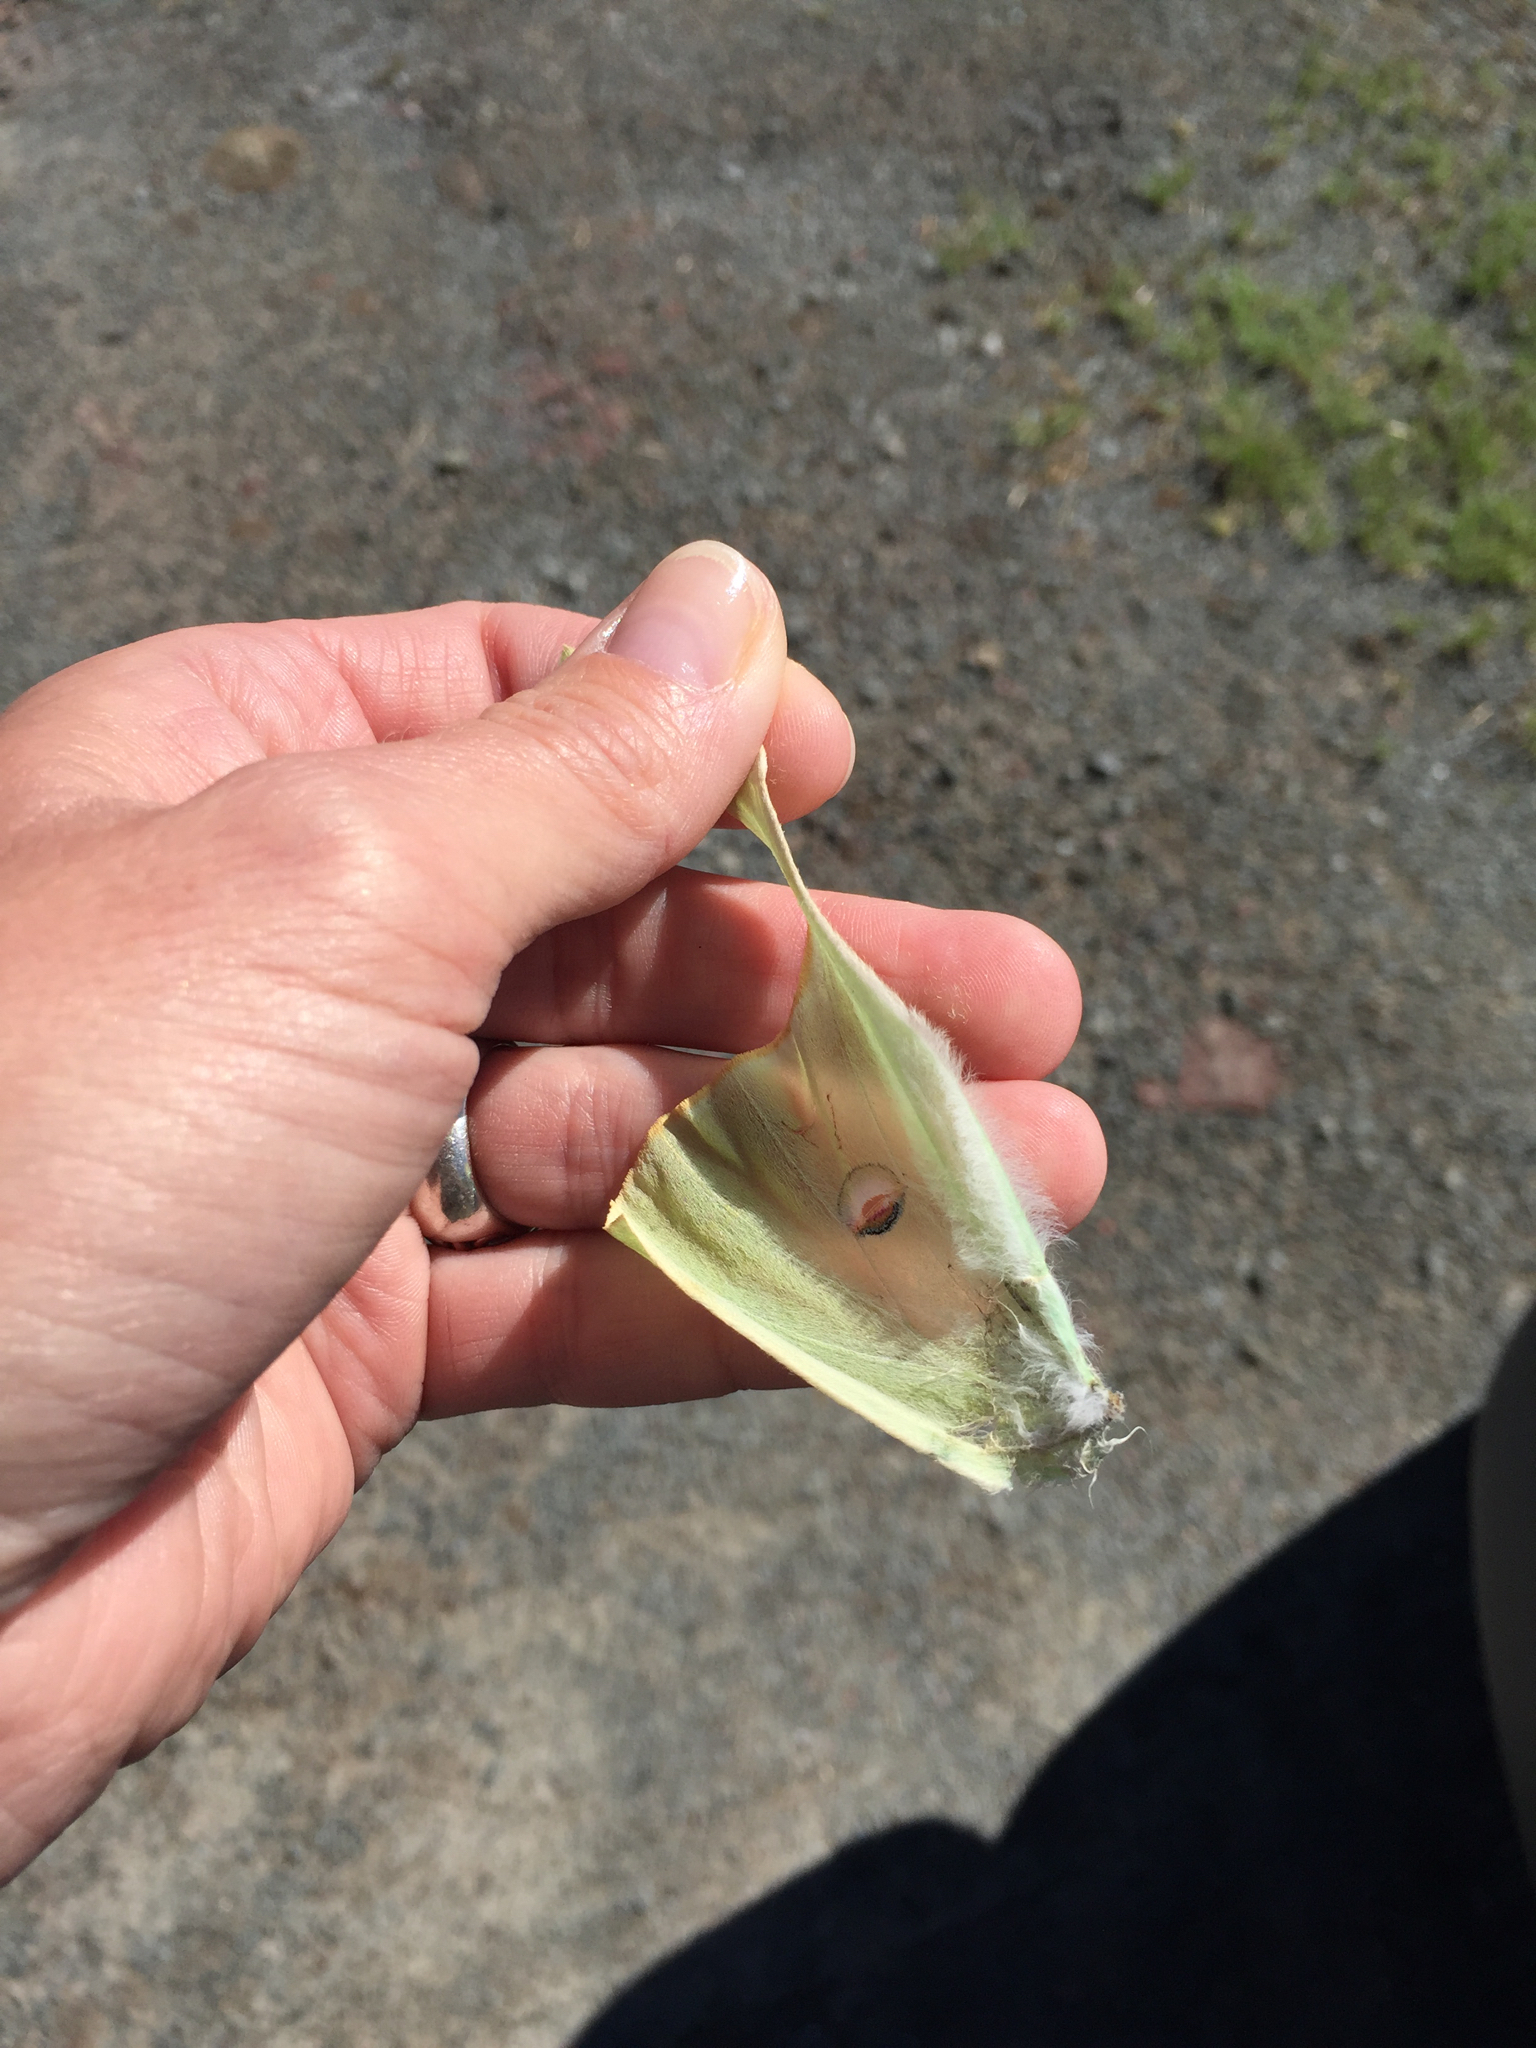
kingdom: Animalia
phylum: Arthropoda
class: Insecta
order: Lepidoptera
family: Saturniidae
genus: Actias
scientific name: Actias luna
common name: Luna moth
